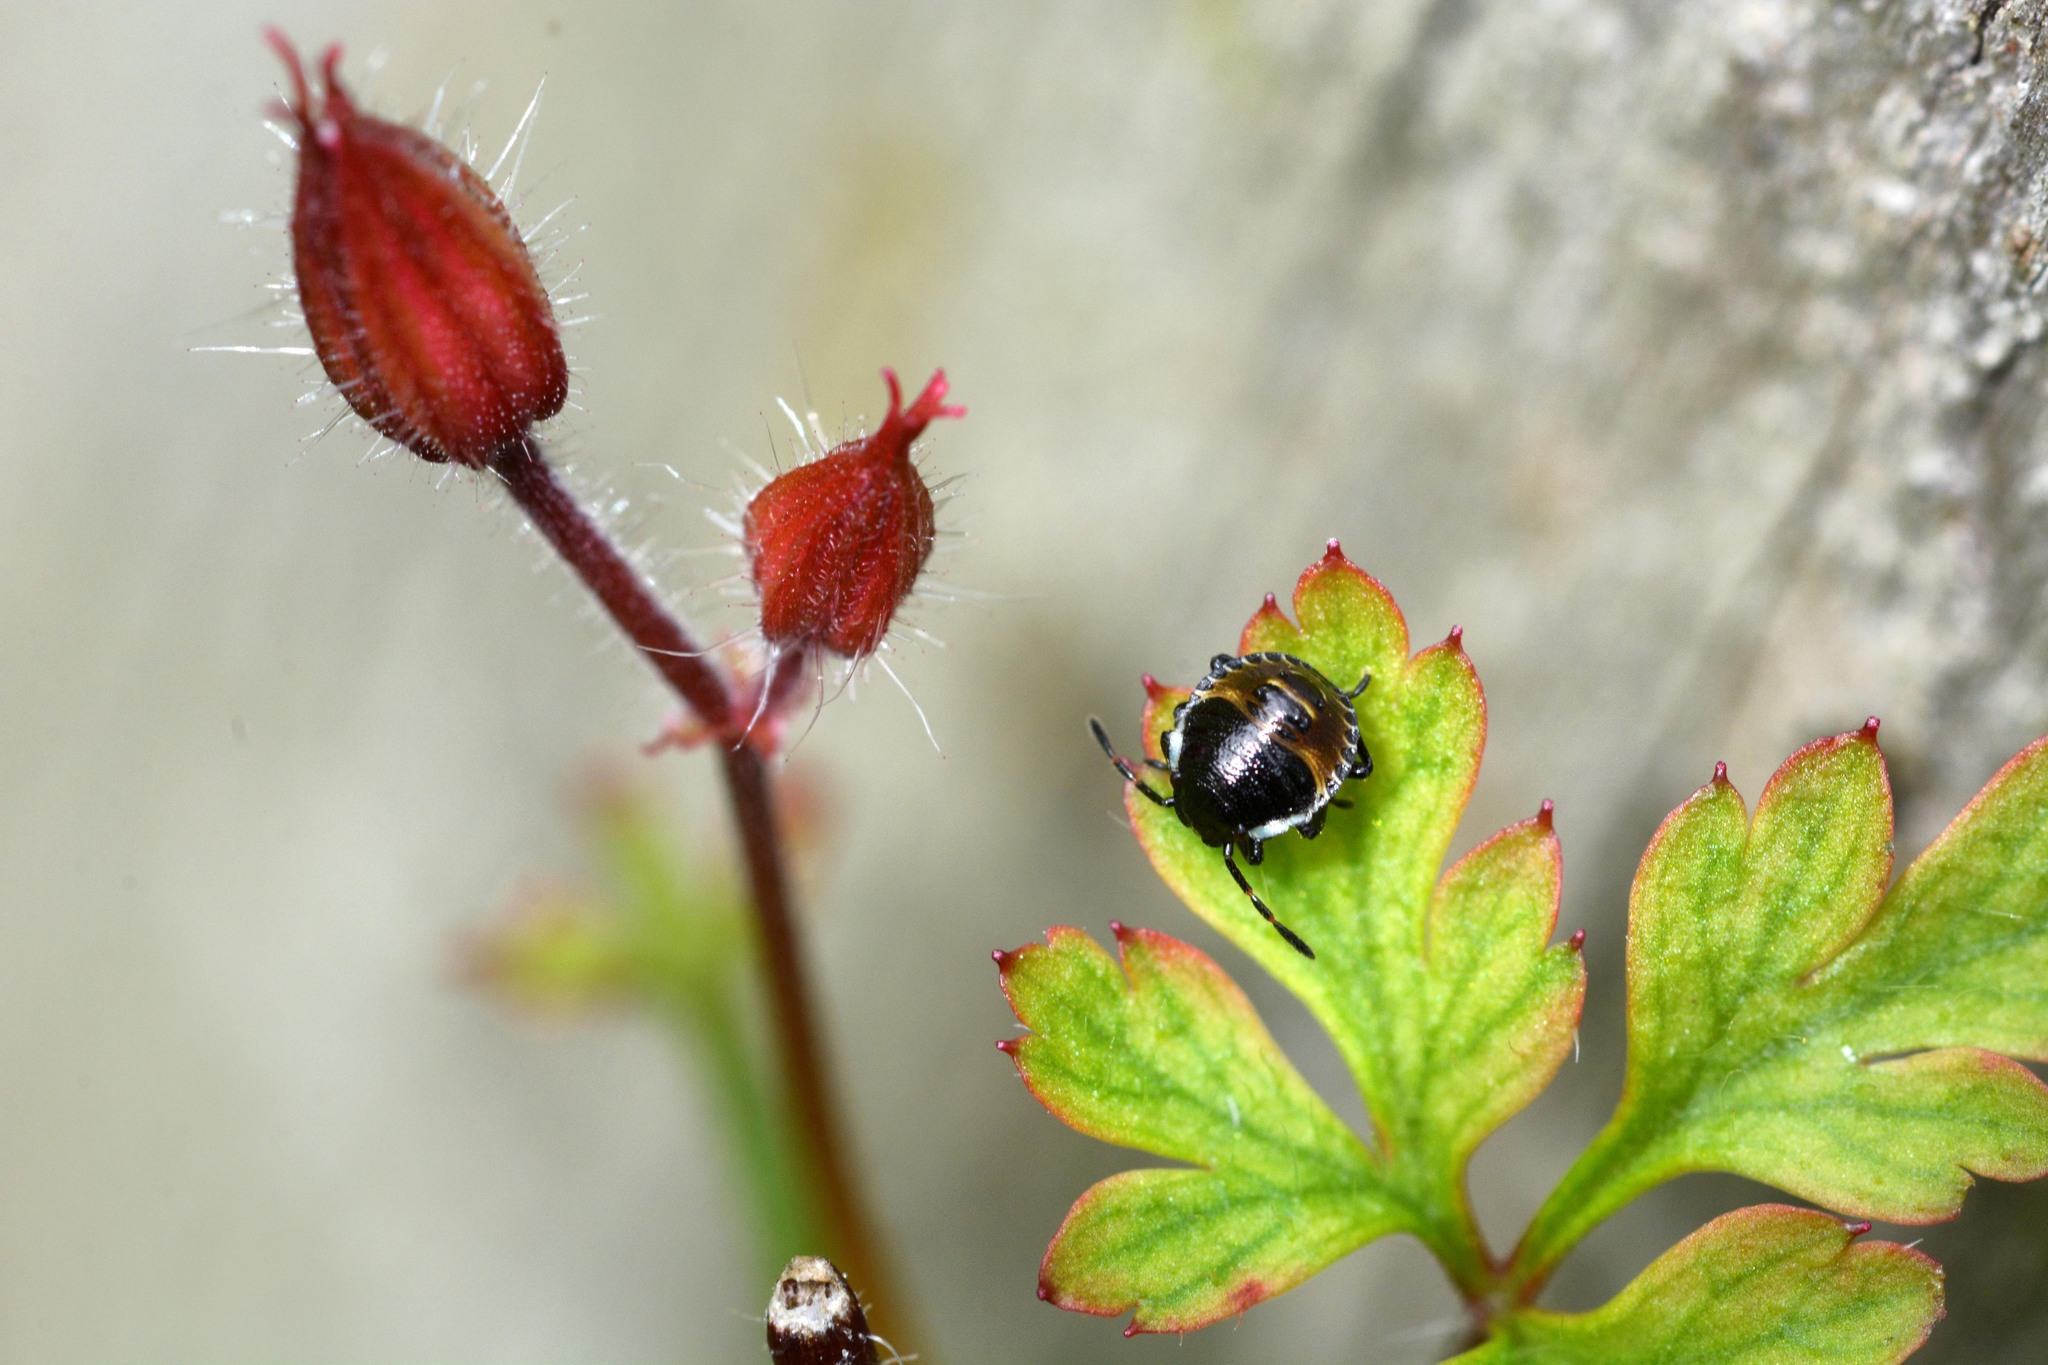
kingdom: Animalia
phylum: Arthropoda
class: Insecta
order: Hemiptera
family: Pentatomidae
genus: Palomena
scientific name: Palomena prasina
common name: Green shieldbug
